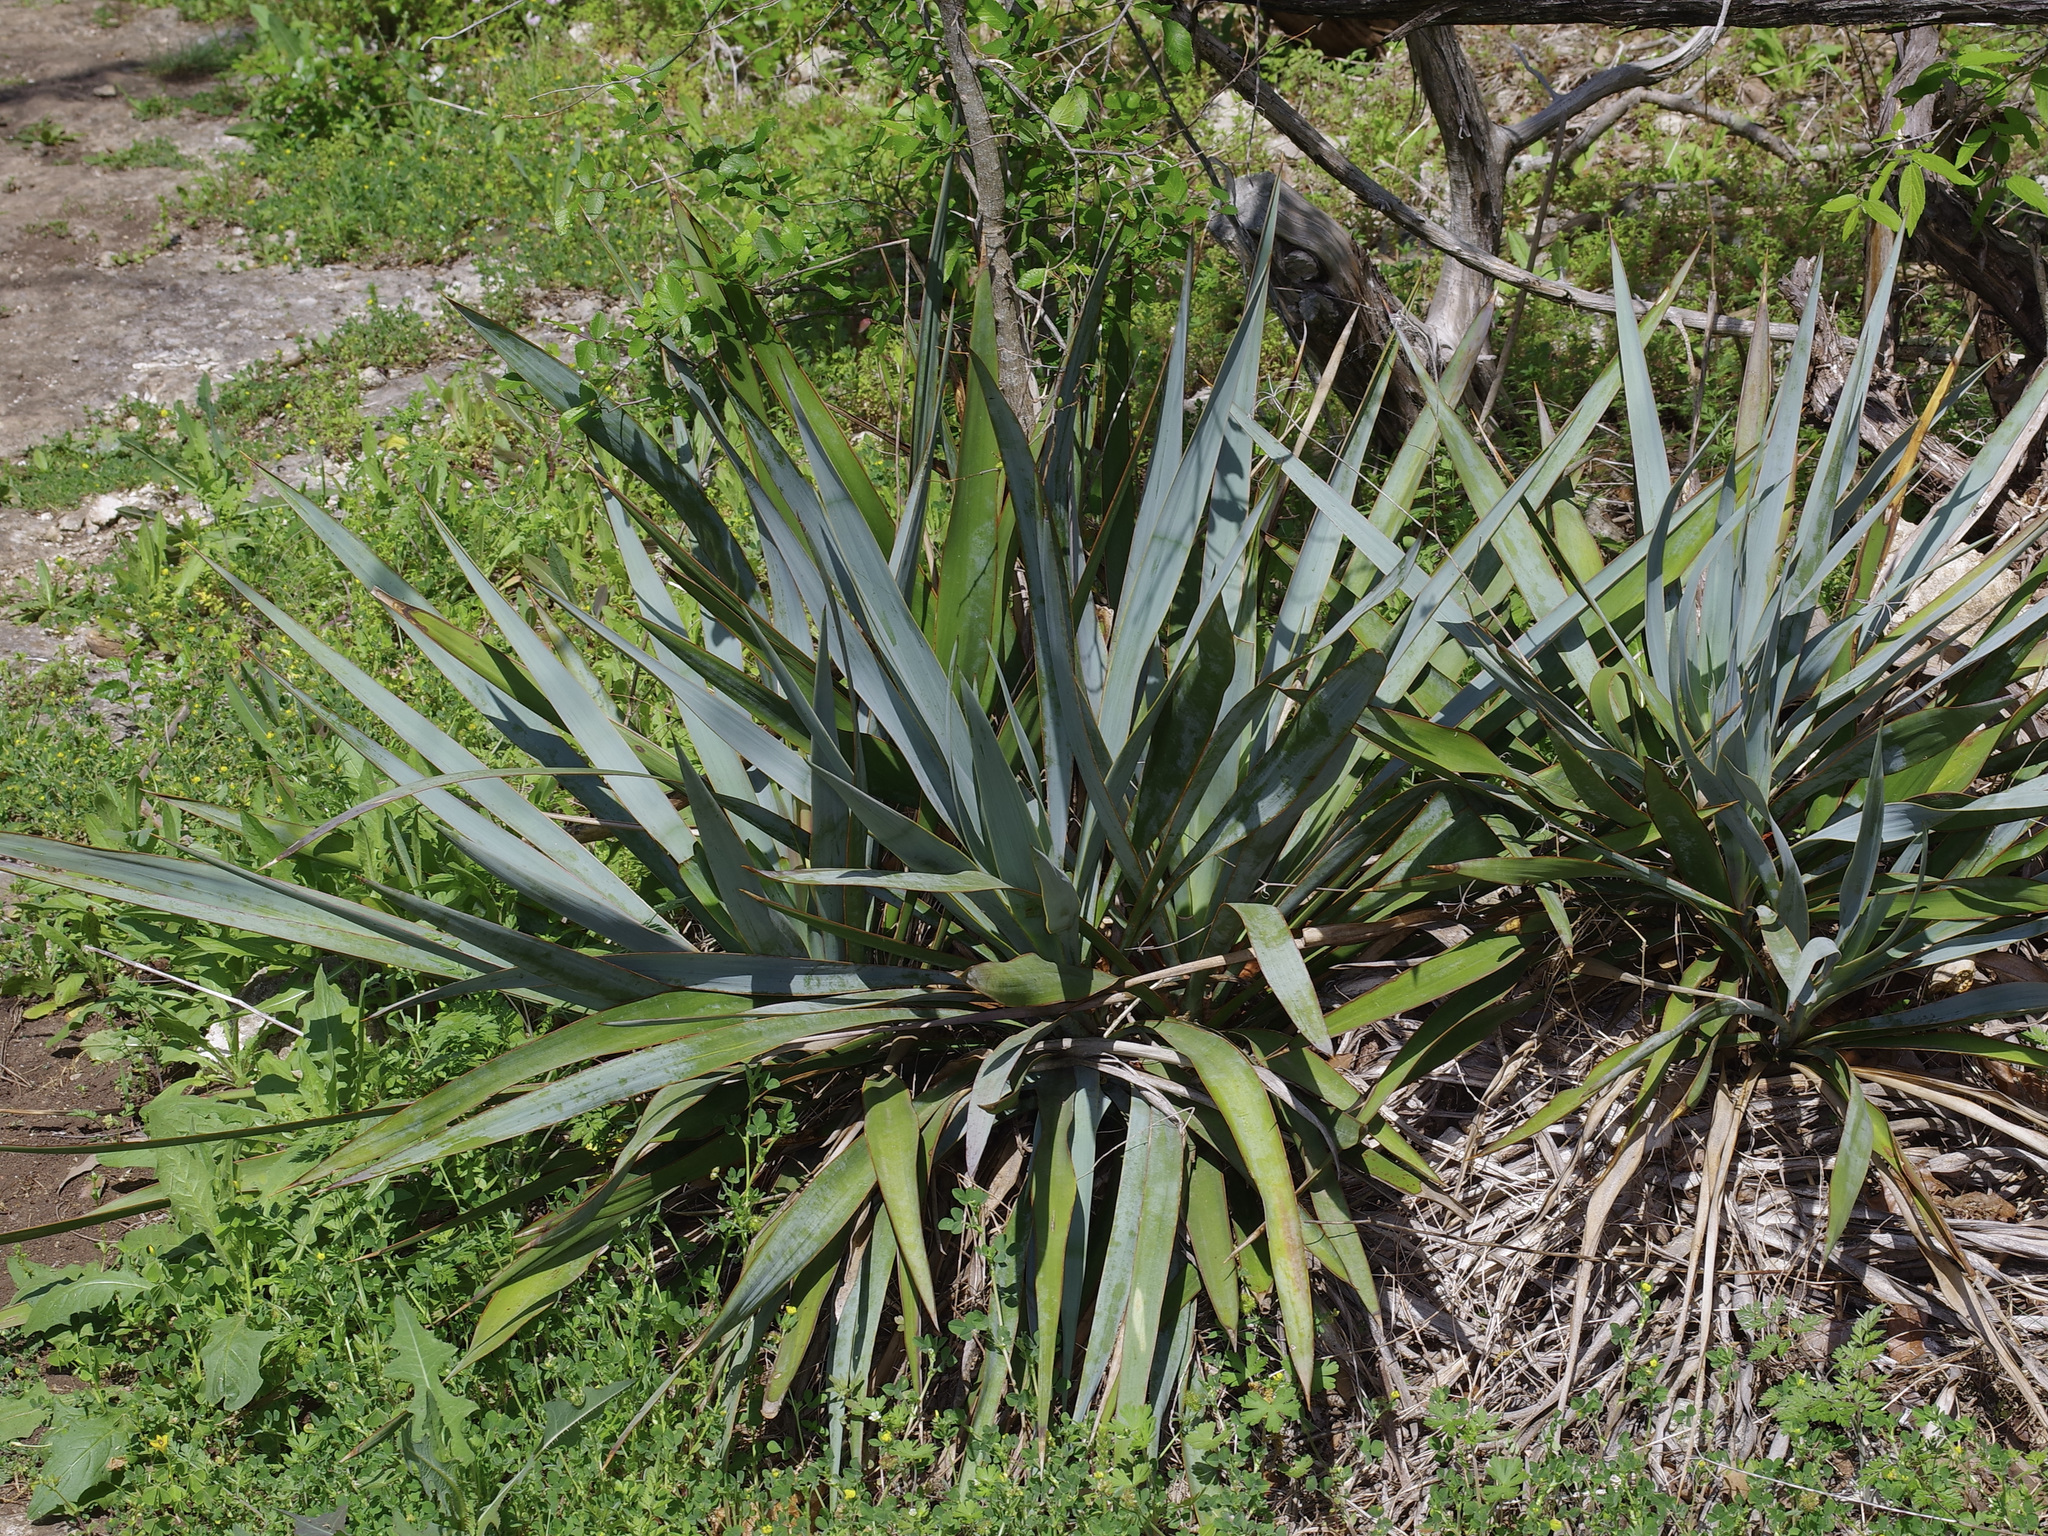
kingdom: Plantae
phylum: Tracheophyta
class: Liliopsida
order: Asparagales
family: Asparagaceae
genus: Yucca
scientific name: Yucca pallida
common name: Pale leaf yucca
